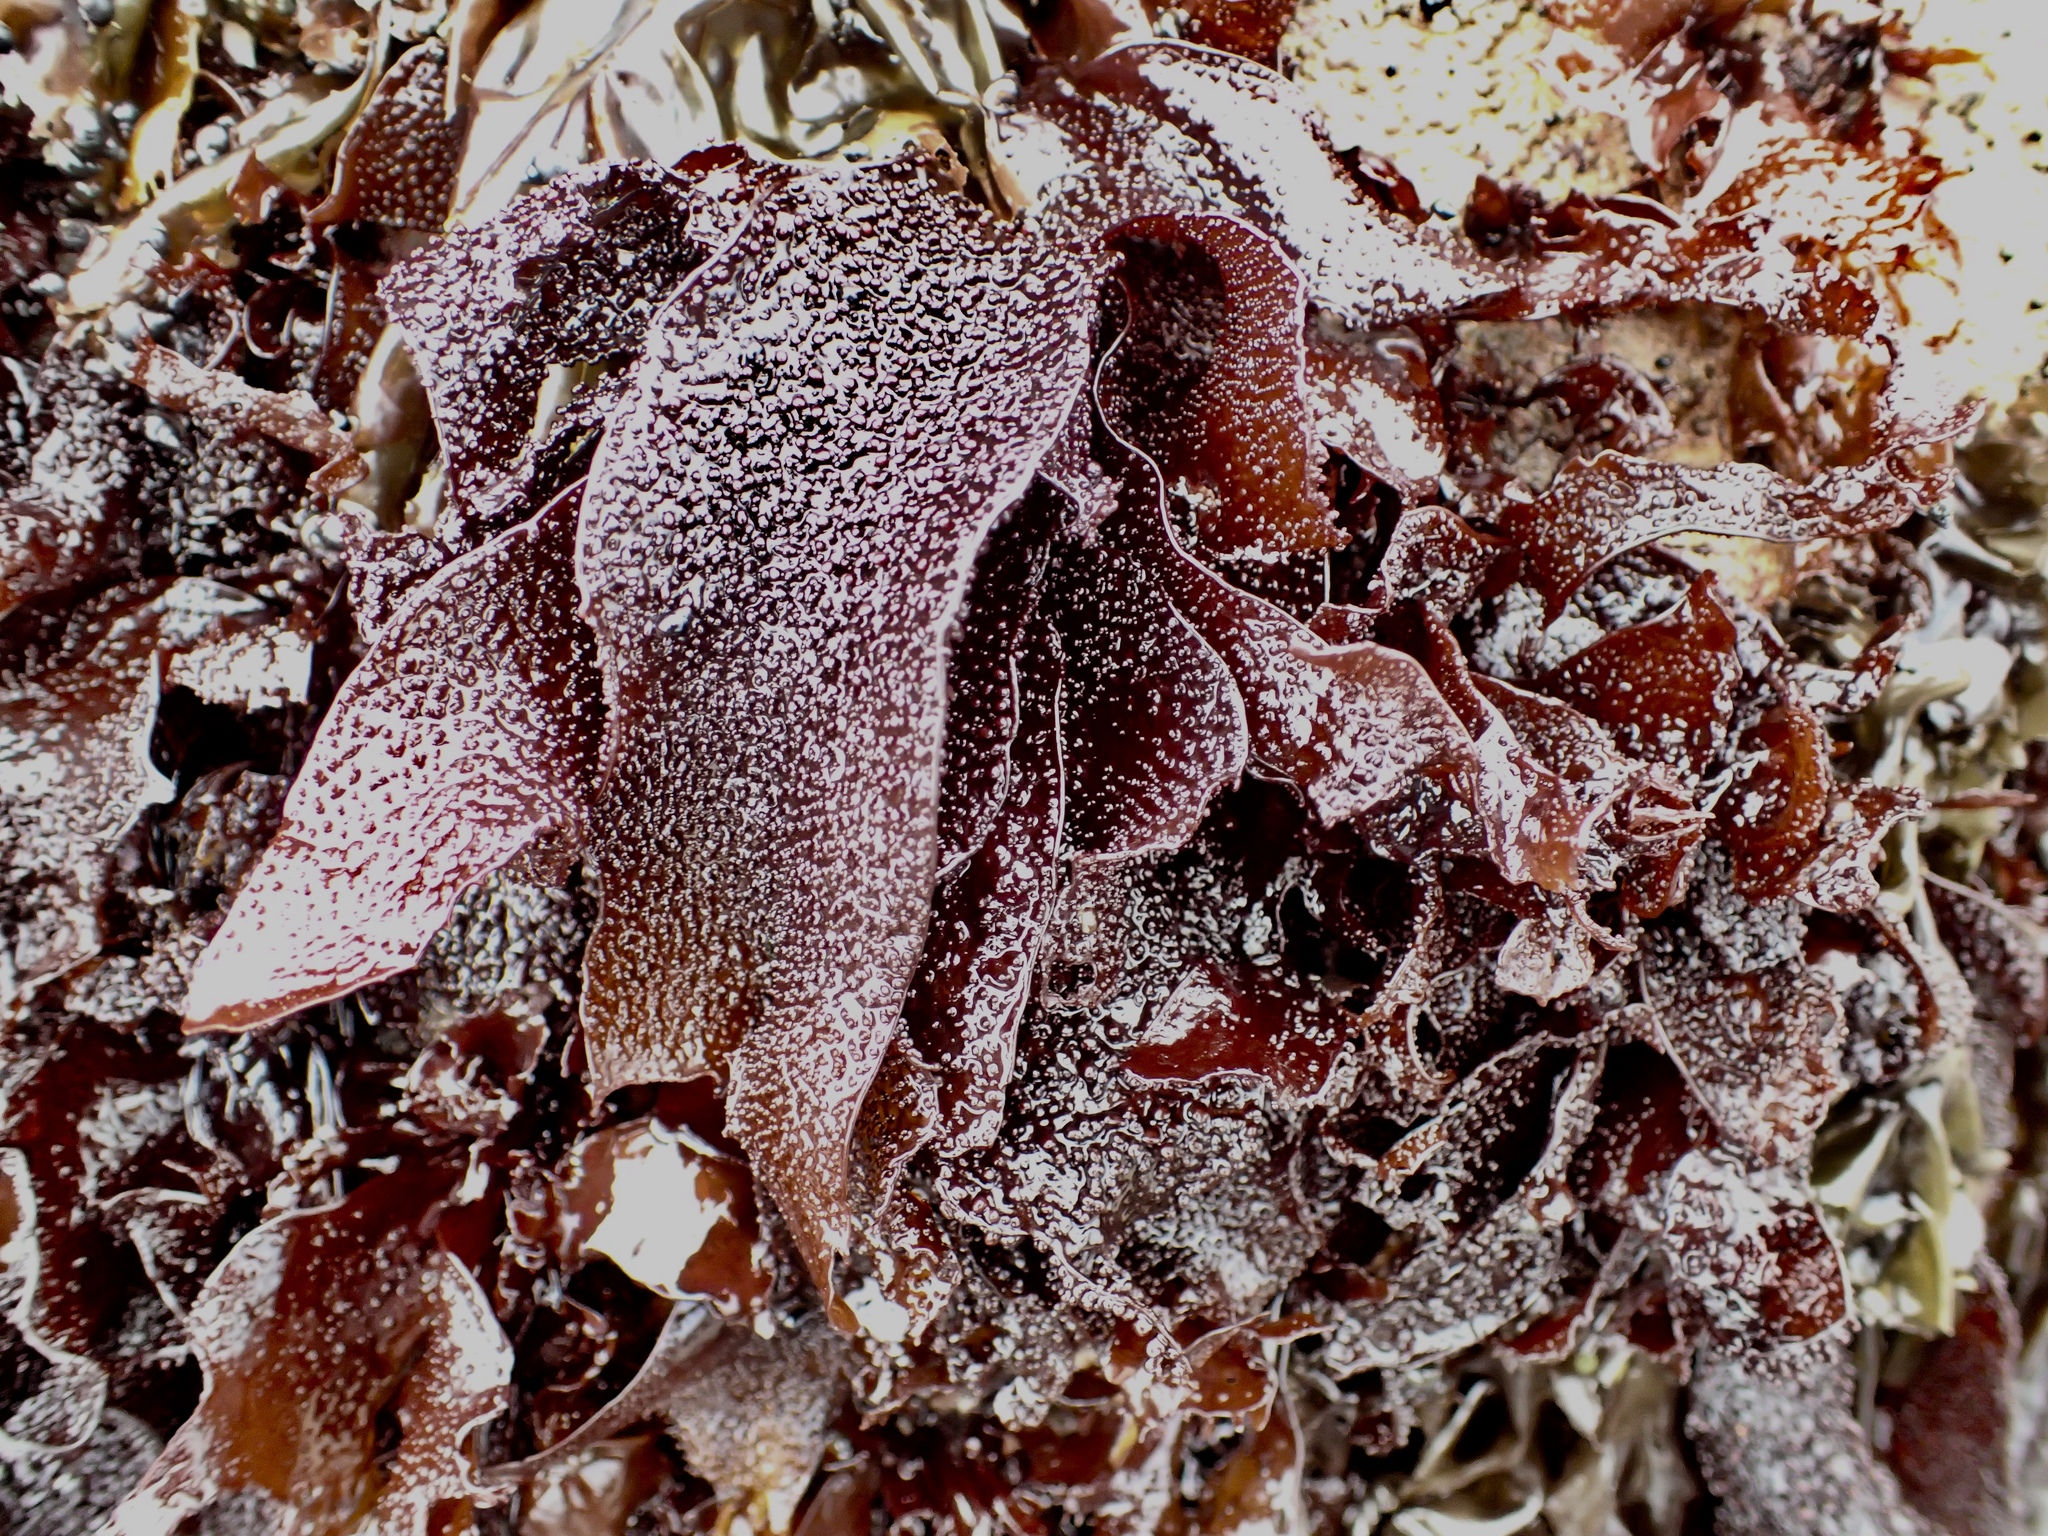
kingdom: Plantae
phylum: Rhodophyta
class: Florideophyceae
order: Gigartinales
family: Phyllophoraceae
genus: Mastocarpus
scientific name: Mastocarpus papillatus
